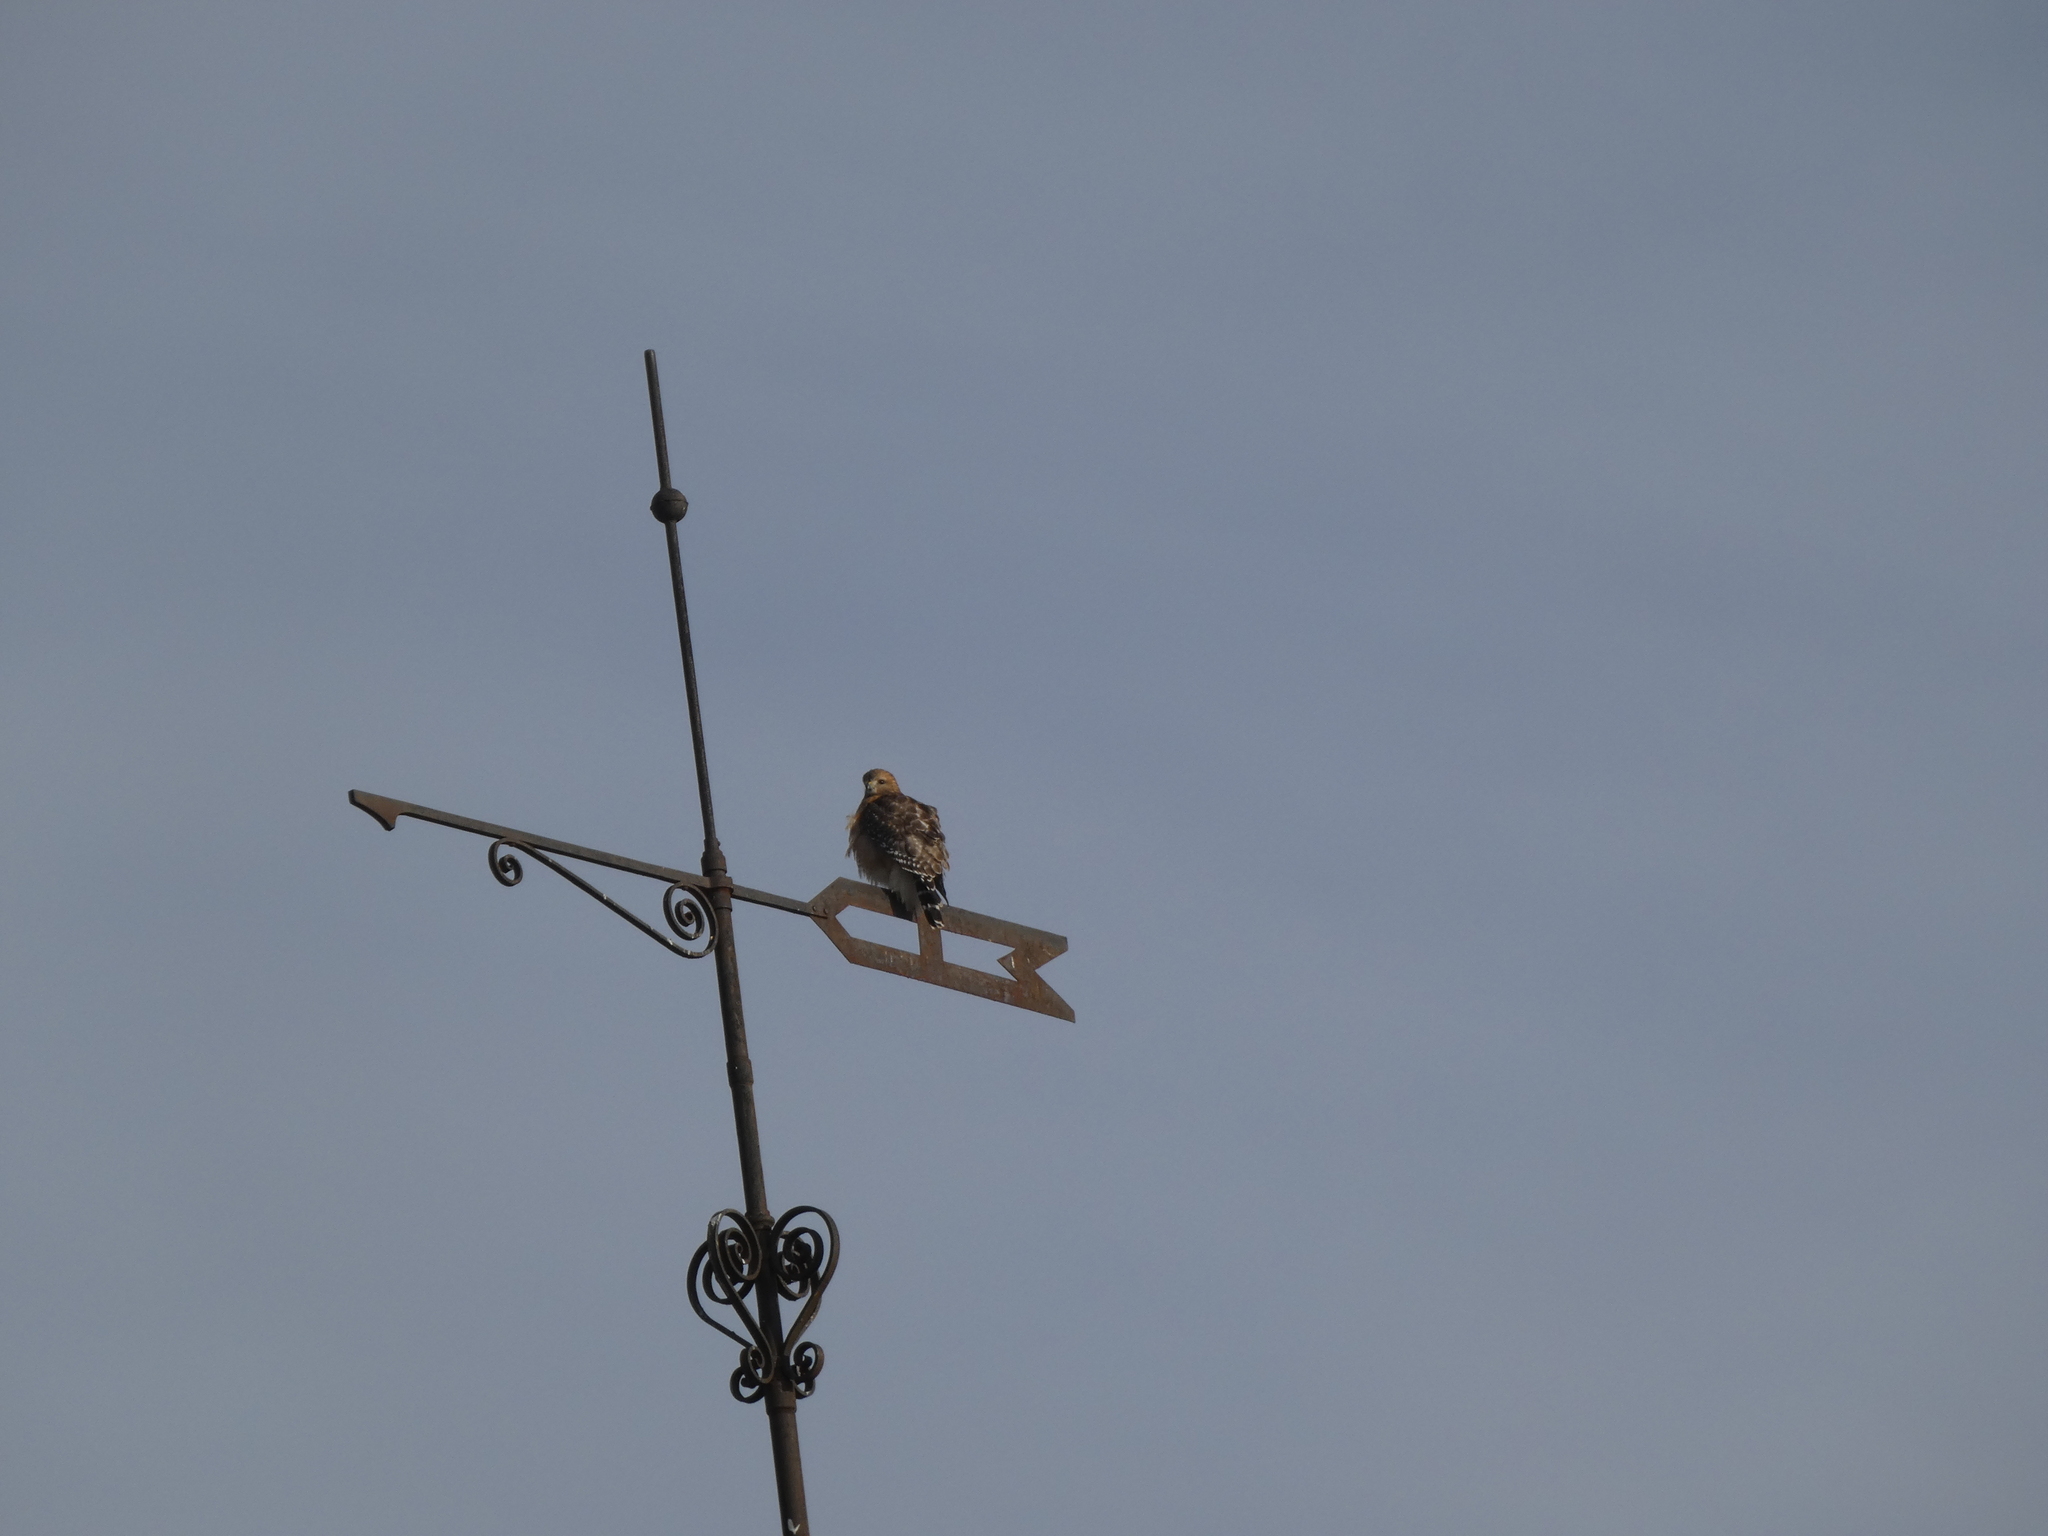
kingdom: Animalia
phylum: Chordata
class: Aves
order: Accipitriformes
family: Accipitridae
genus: Buteo
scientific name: Buteo lineatus
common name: Red-shouldered hawk
